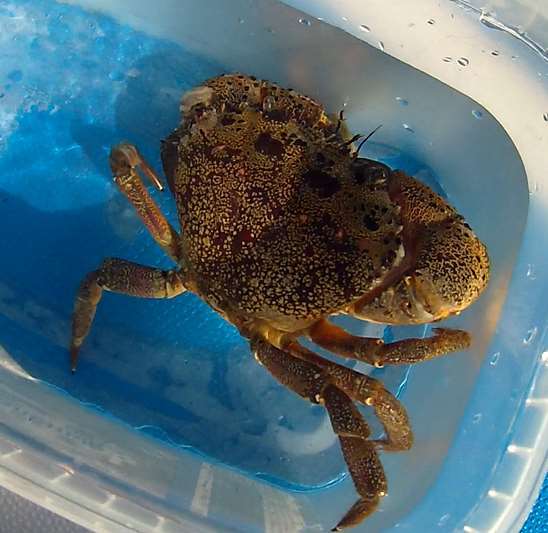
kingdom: Animalia
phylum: Arthropoda
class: Malacostraca
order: Decapoda
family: Eriphiidae
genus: Eriphia
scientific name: Eriphia verrucosa
